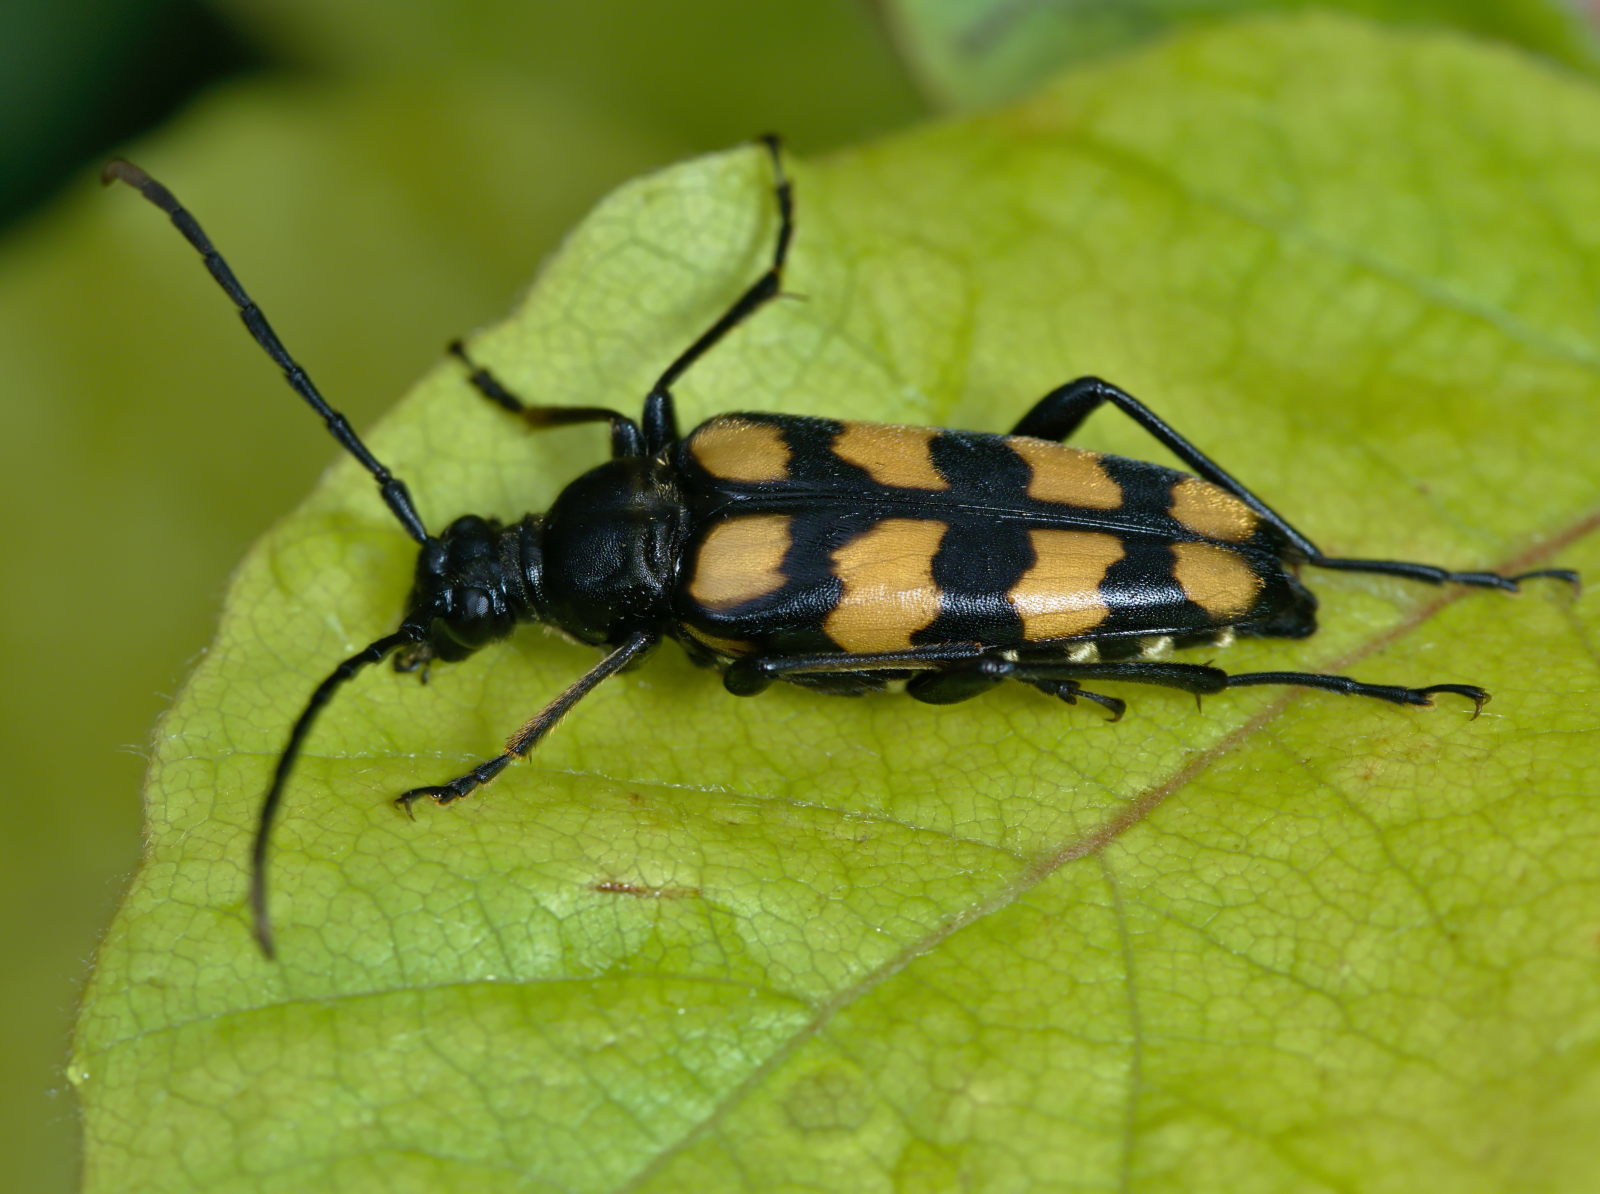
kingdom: Animalia
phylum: Arthropoda
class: Insecta
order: Coleoptera
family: Cerambycidae
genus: Leptura
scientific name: Leptura quadrifasciata
